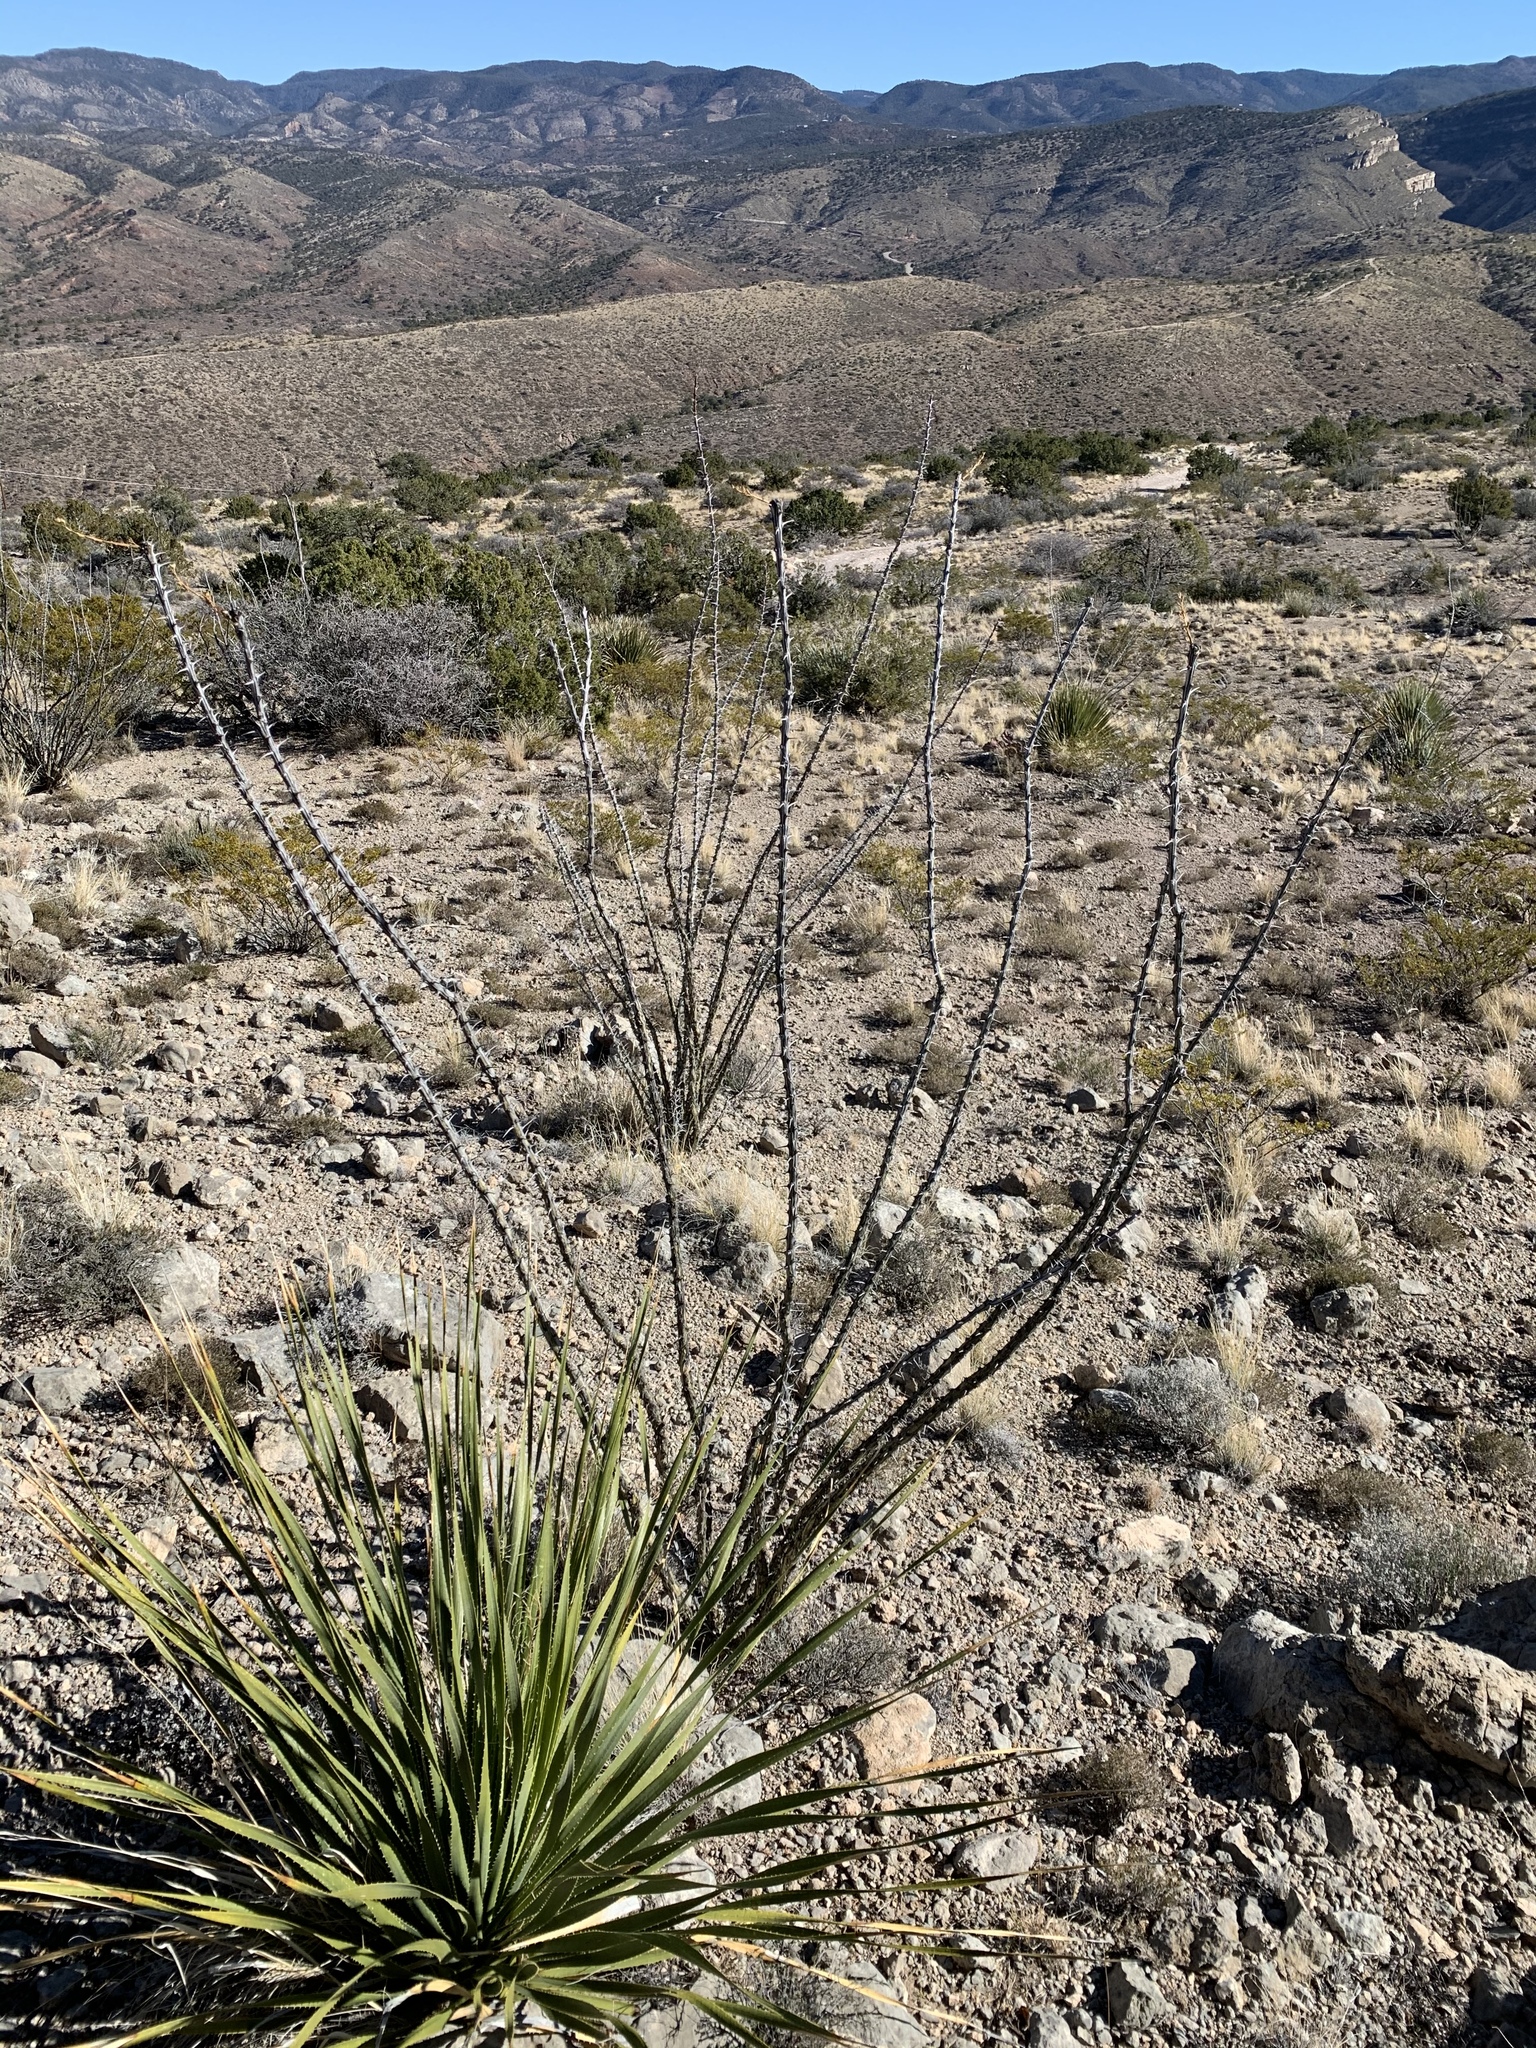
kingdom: Plantae
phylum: Tracheophyta
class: Magnoliopsida
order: Ericales
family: Fouquieriaceae
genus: Fouquieria
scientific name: Fouquieria splendens
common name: Vine-cactus
